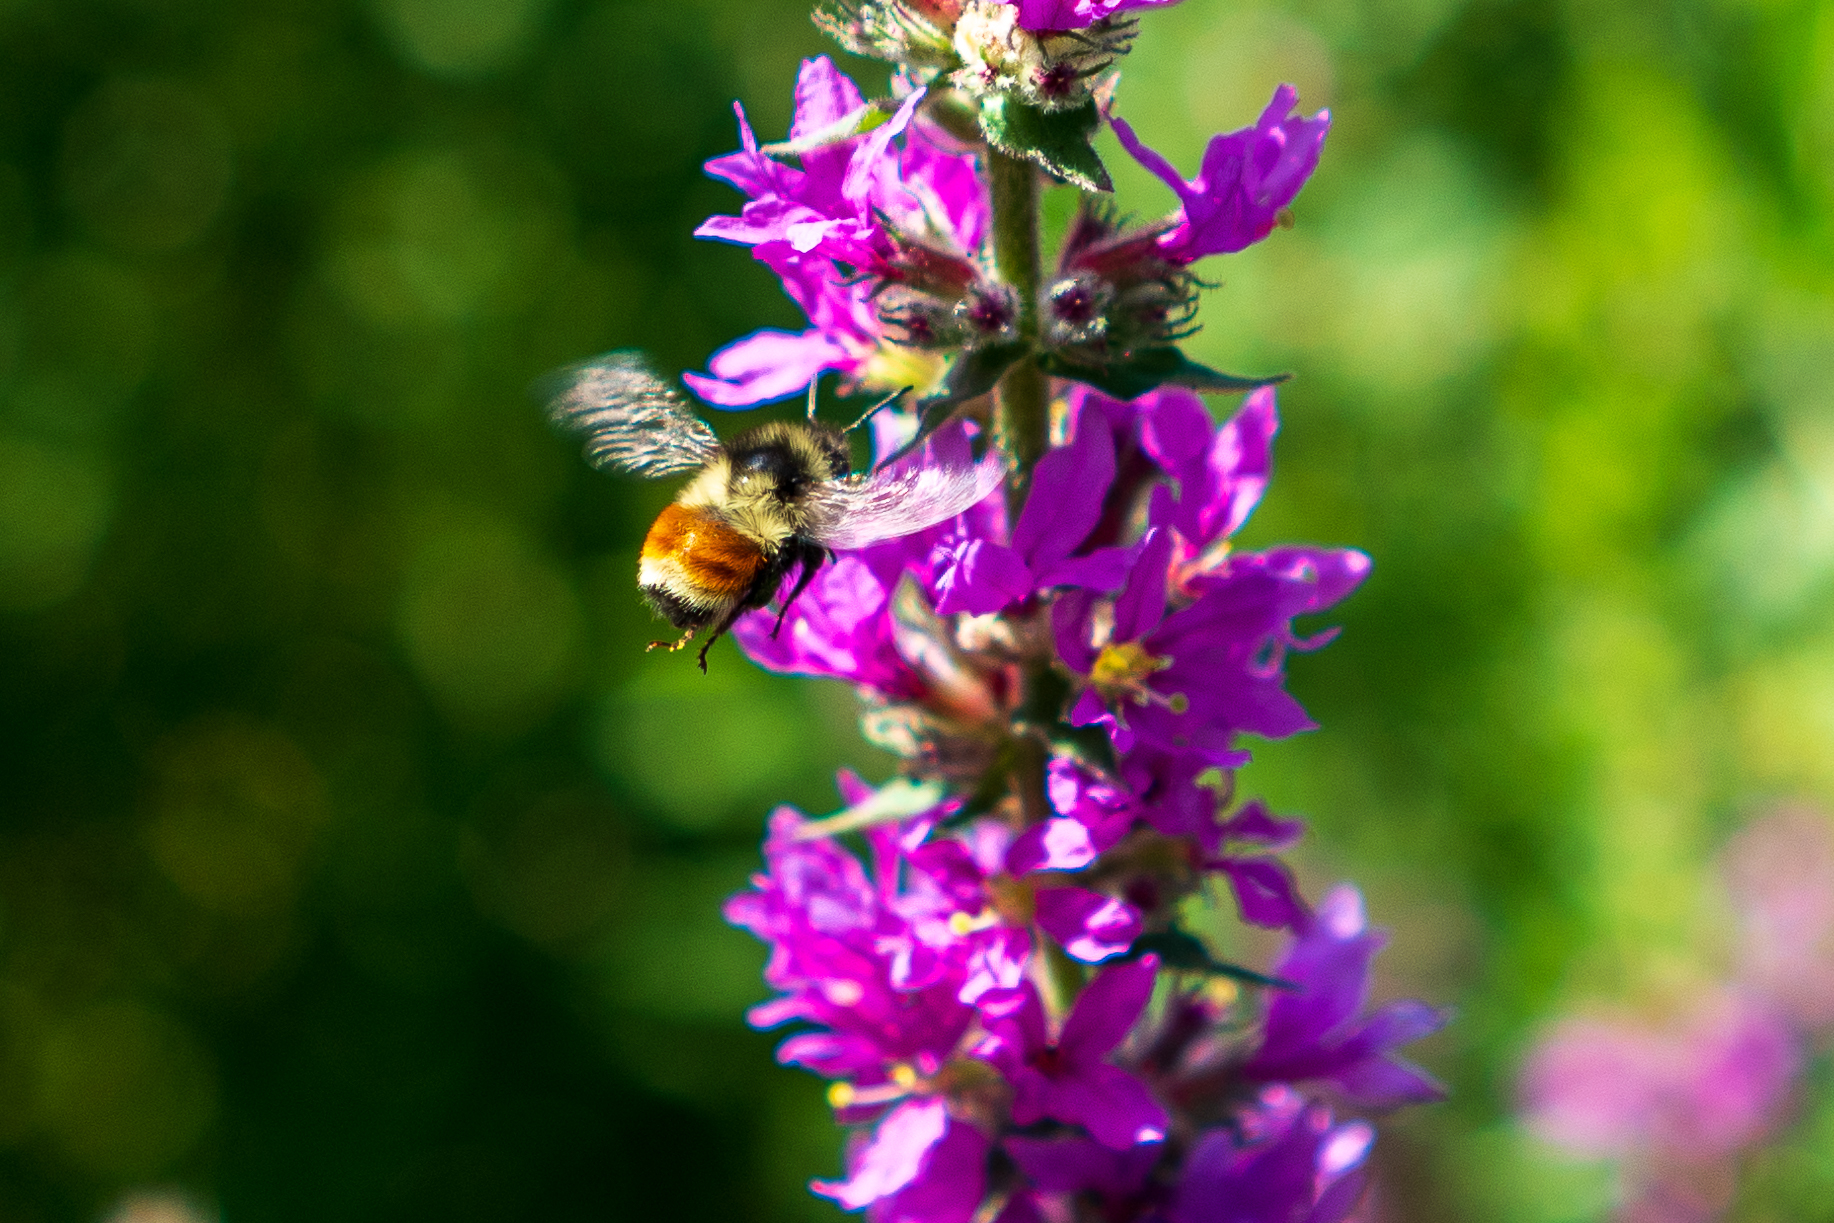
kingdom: Animalia
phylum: Arthropoda
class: Insecta
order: Hymenoptera
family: Apidae
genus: Bombus
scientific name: Bombus ternarius
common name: Tri-colored bumble bee
